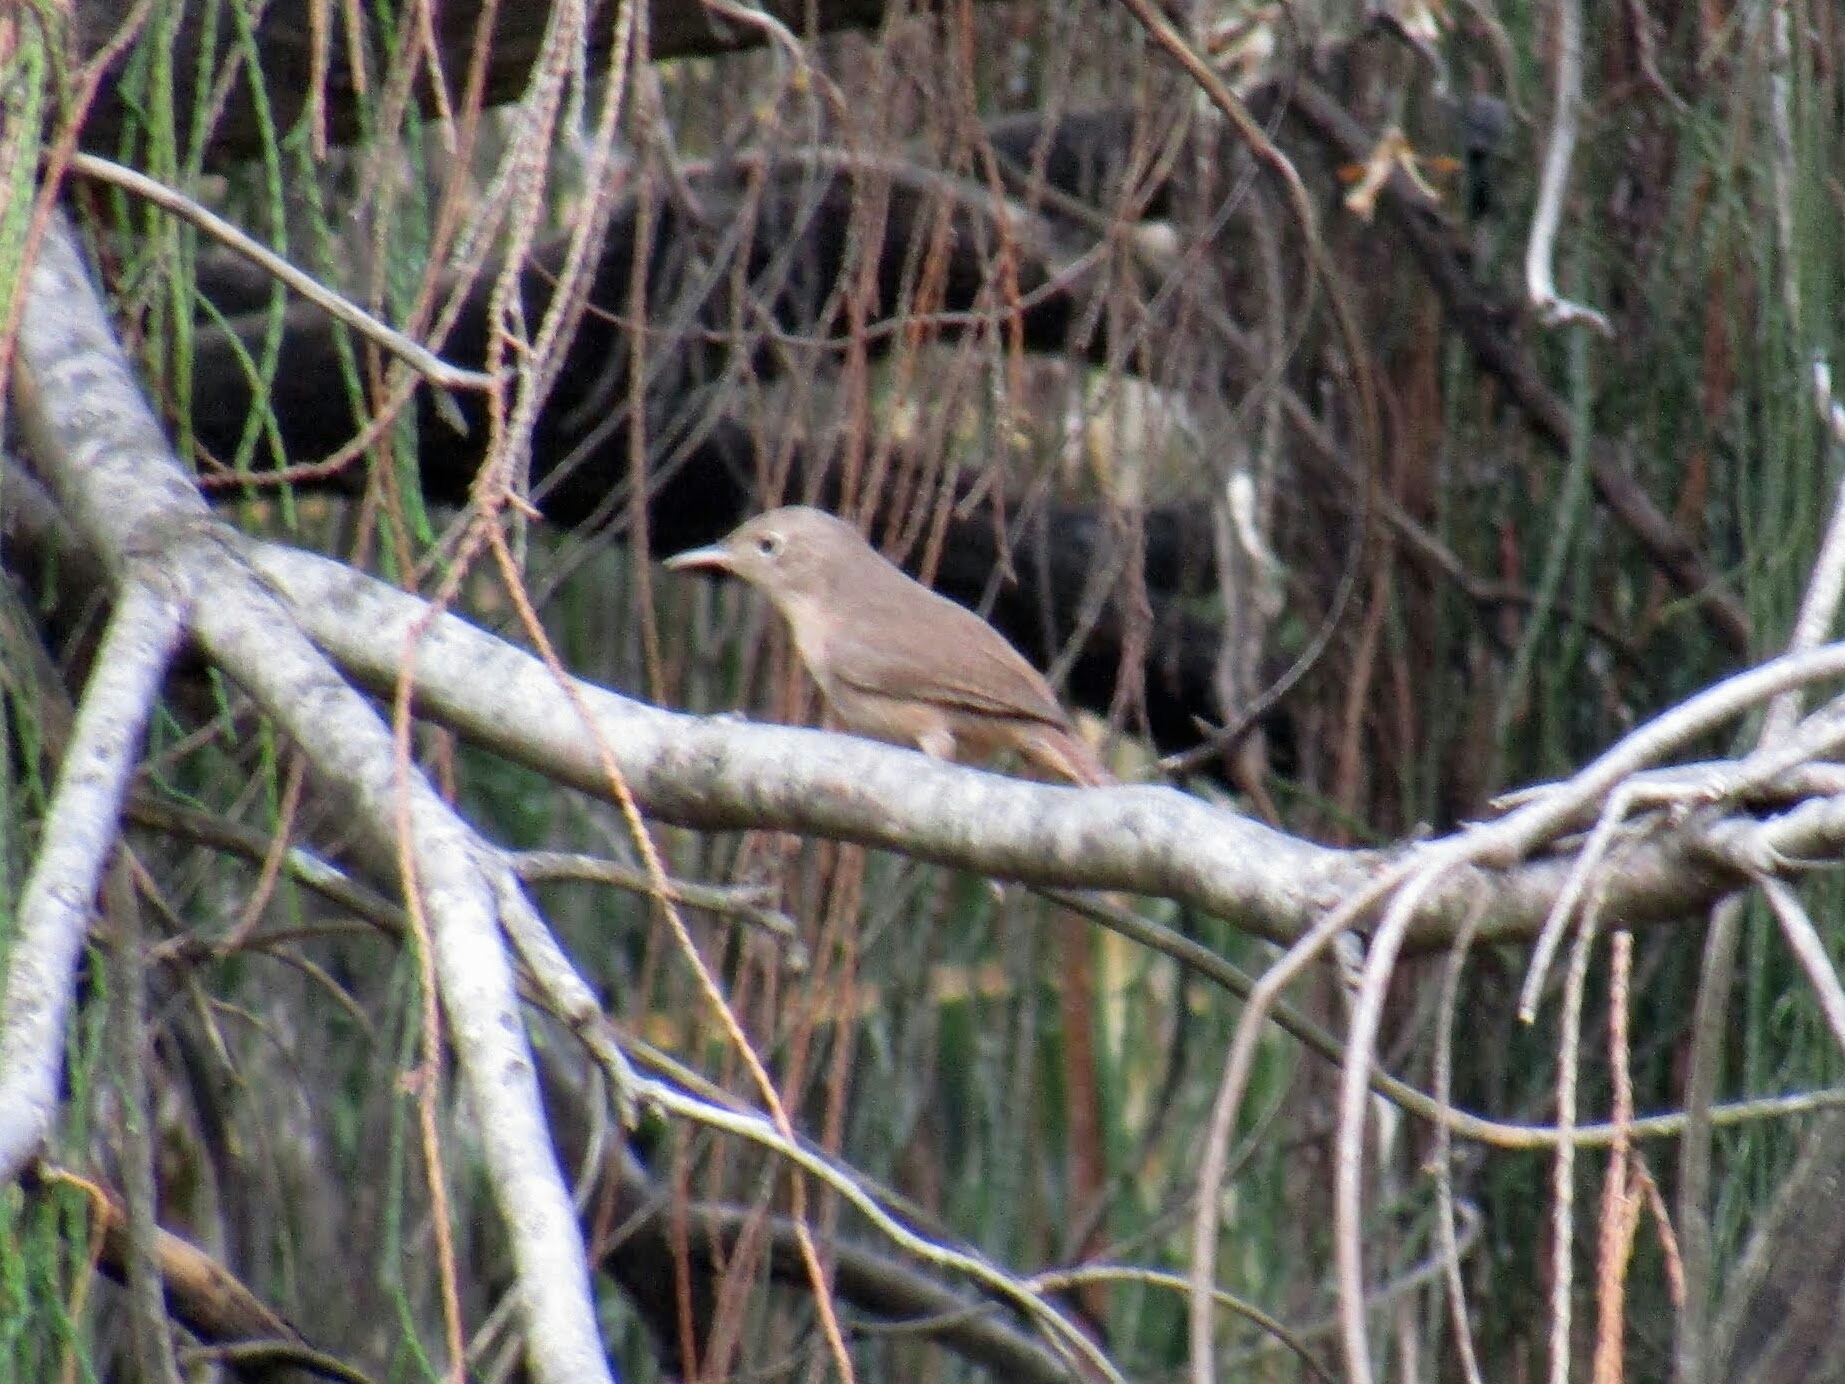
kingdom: Animalia
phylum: Chordata
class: Aves
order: Passeriformes
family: Troglodytidae
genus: Troglodytes
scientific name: Troglodytes aedon
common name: House wren
